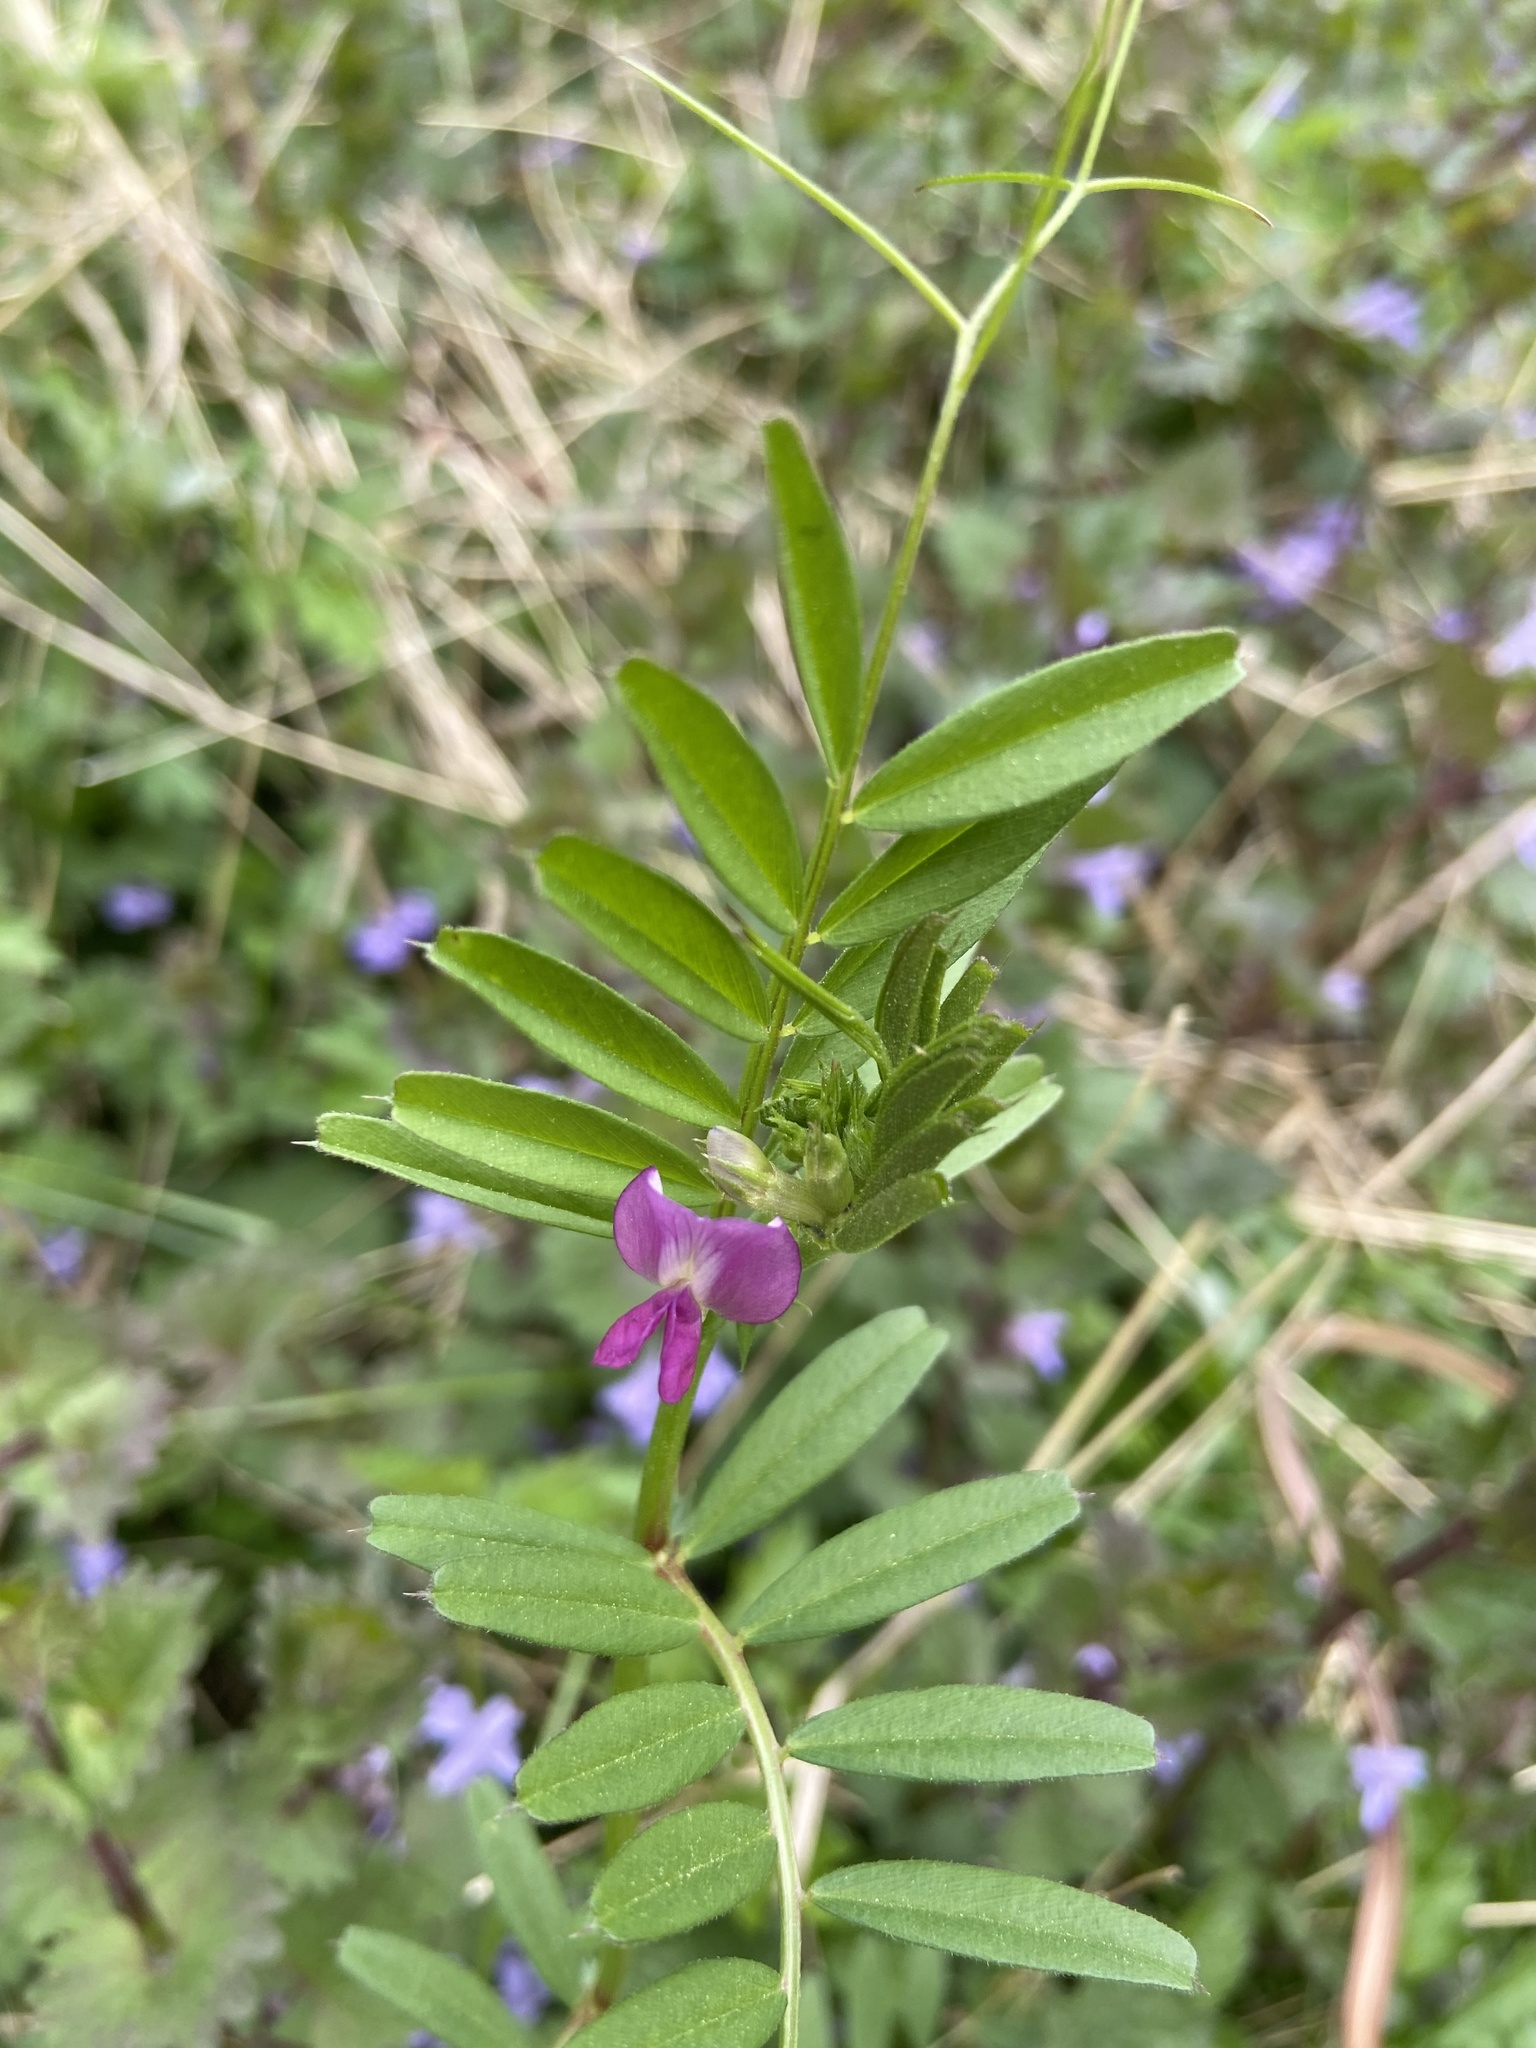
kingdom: Plantae
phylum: Tracheophyta
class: Magnoliopsida
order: Fabales
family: Fabaceae
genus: Vicia
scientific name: Vicia sativa
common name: Garden vetch
